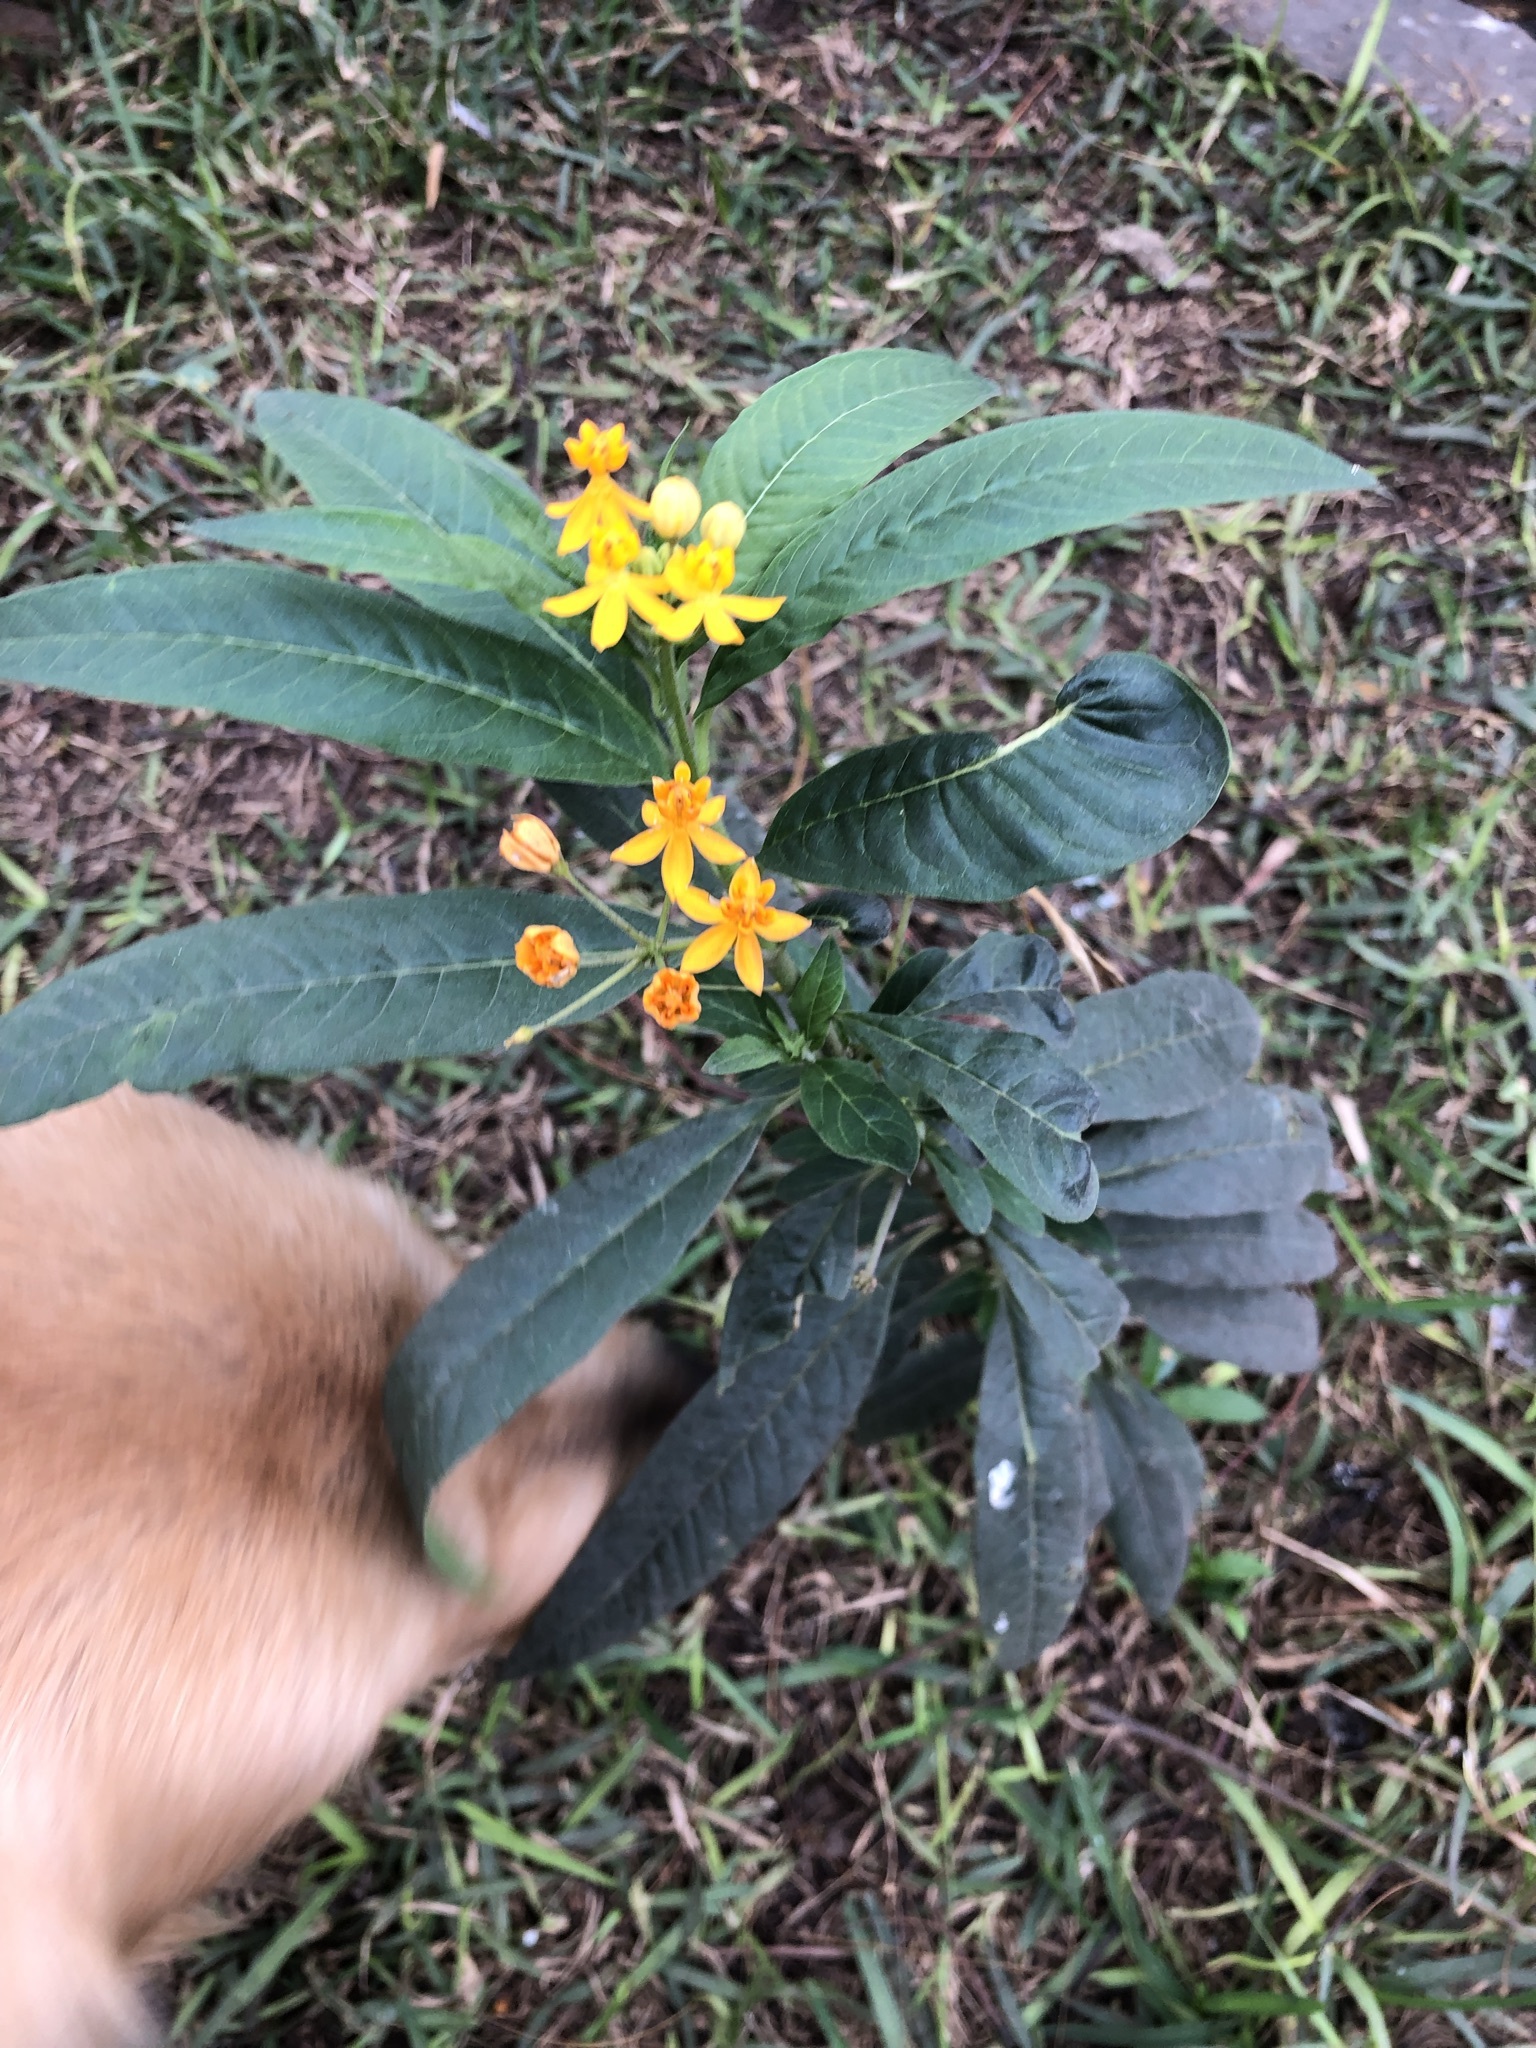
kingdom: Plantae
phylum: Tracheophyta
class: Magnoliopsida
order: Gentianales
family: Apocynaceae
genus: Asclepias
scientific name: Asclepias curassavica
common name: Bloodflower
